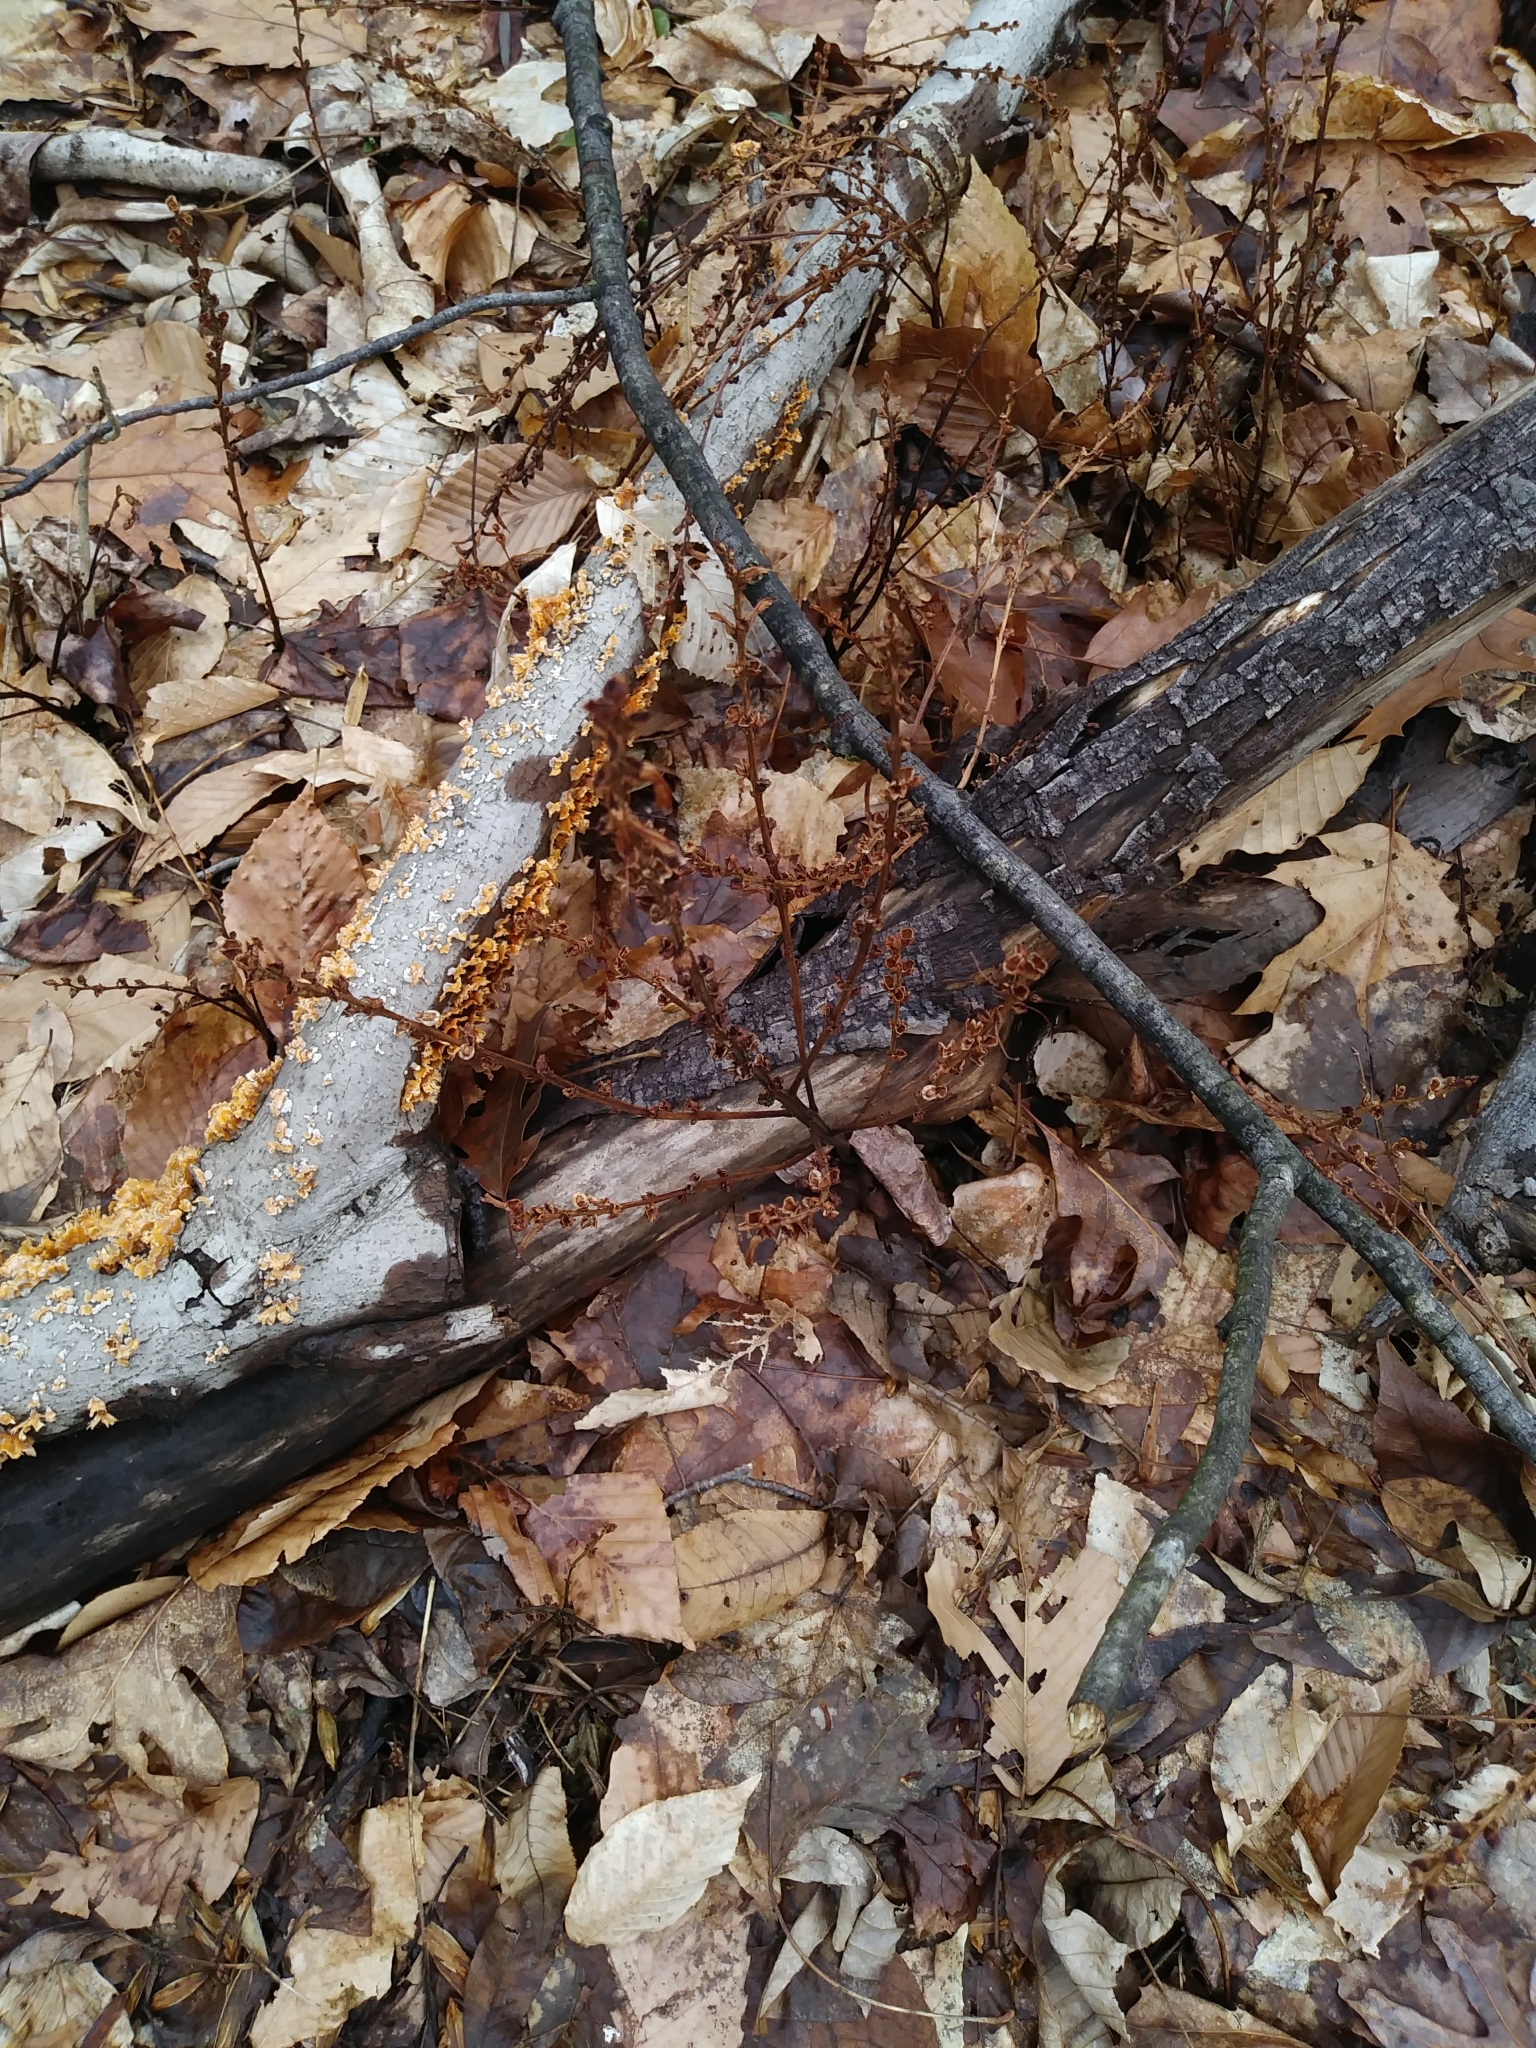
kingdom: Plantae
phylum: Tracheophyta
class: Magnoliopsida
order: Lamiales
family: Orobanchaceae
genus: Epifagus
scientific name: Epifagus virginiana
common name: Beechdrops
